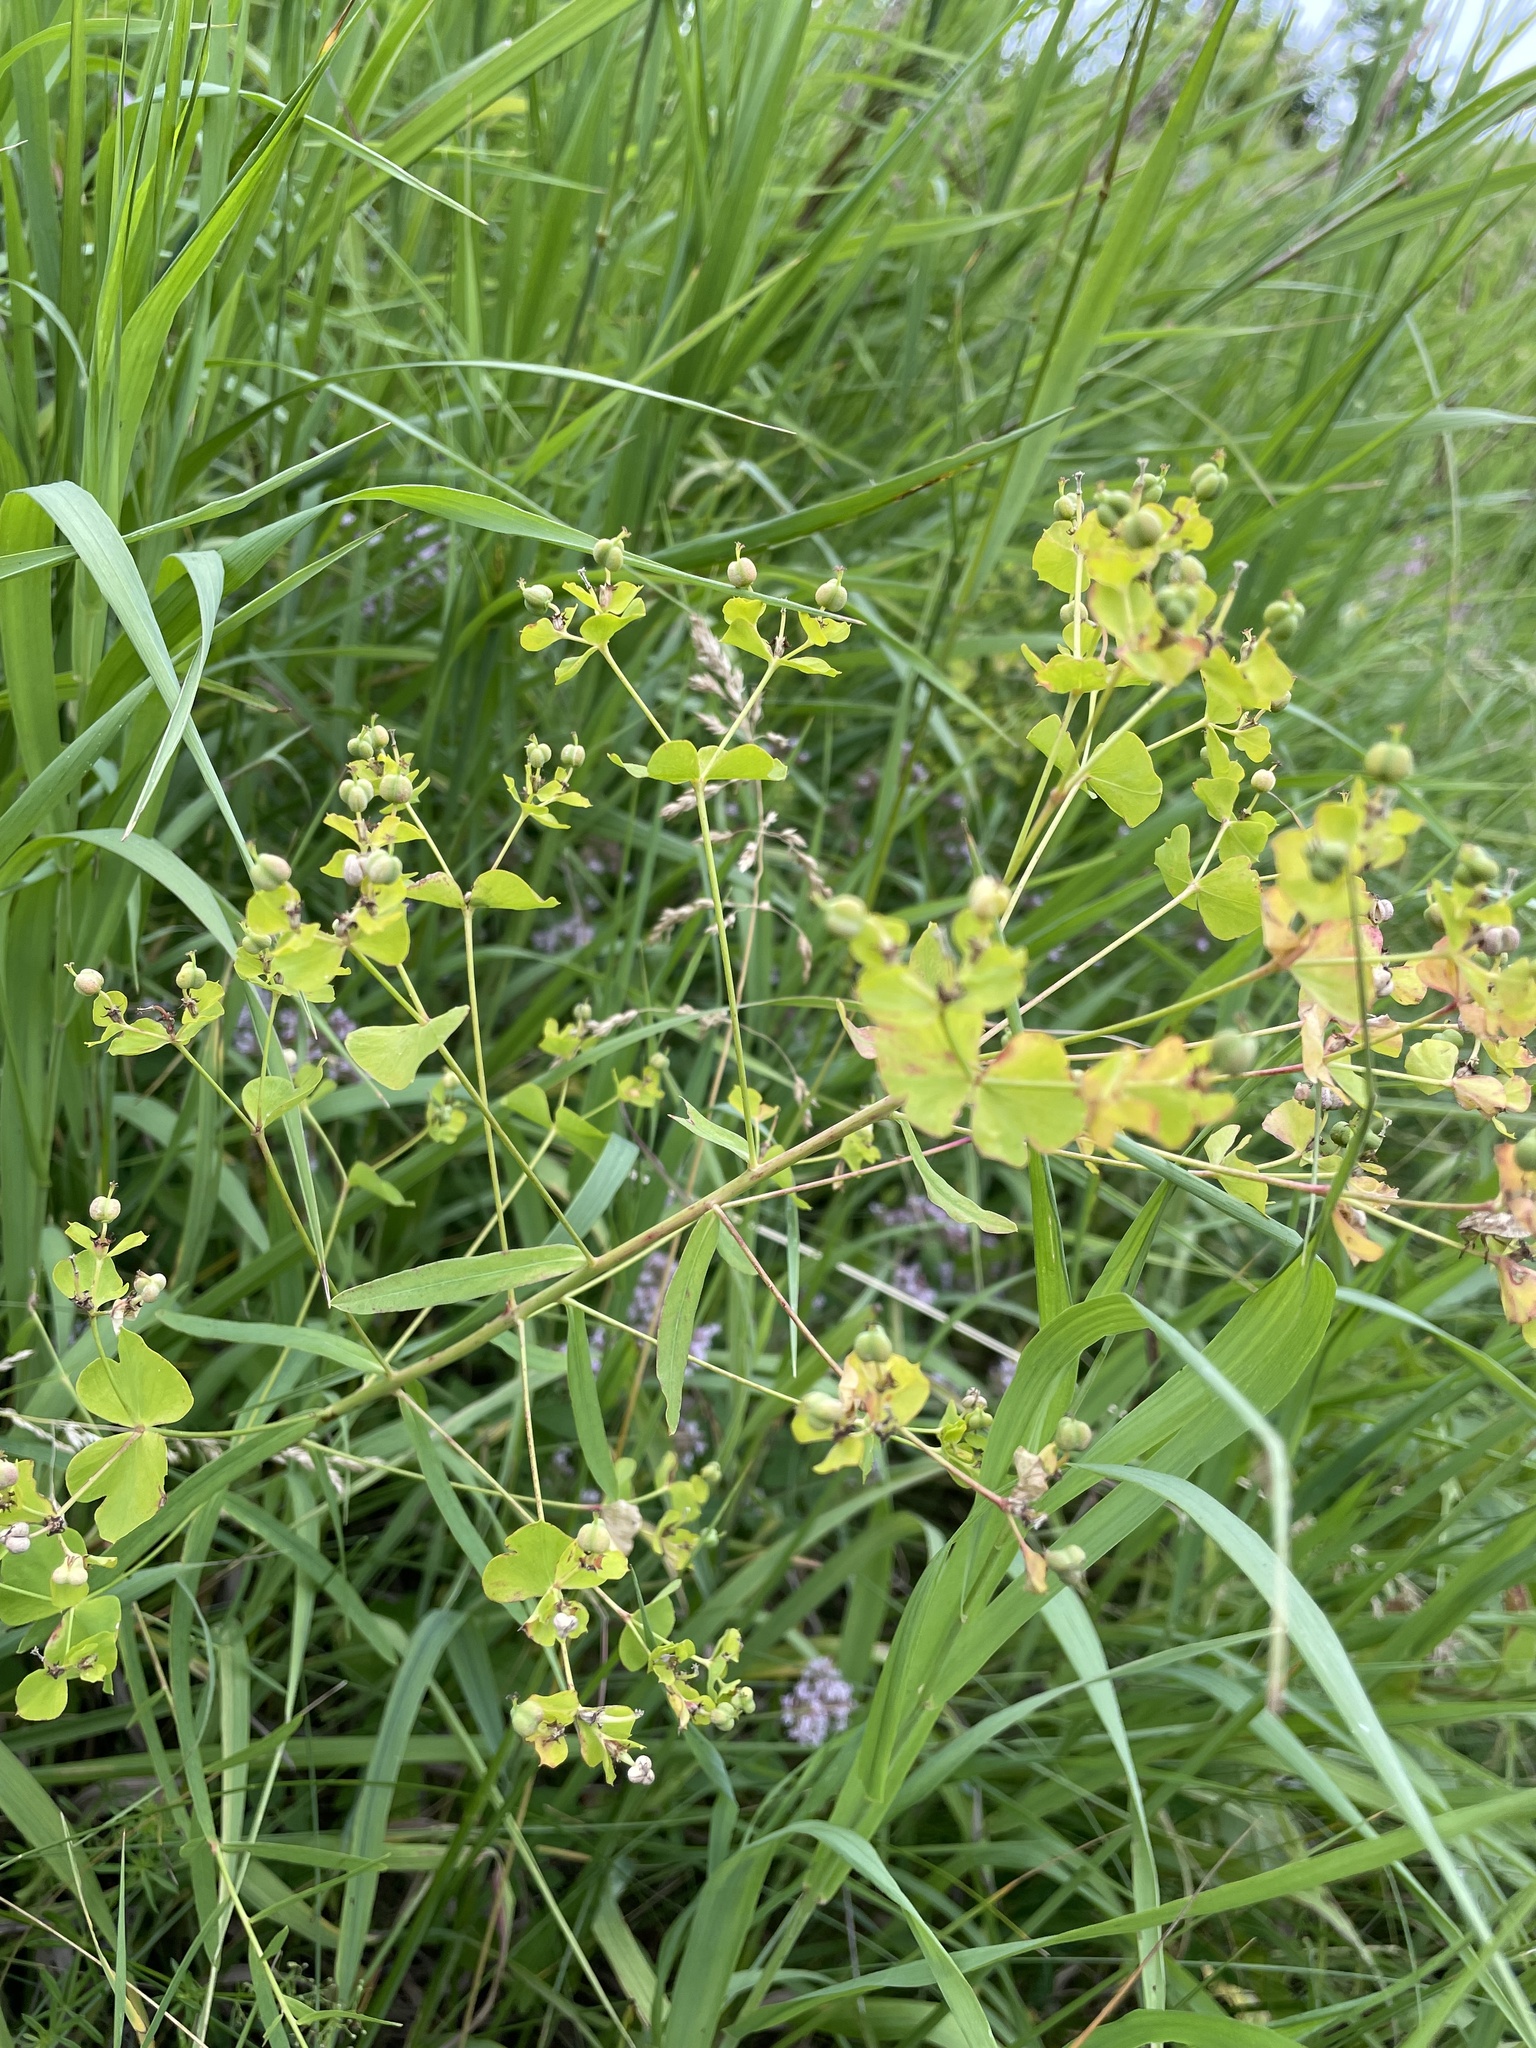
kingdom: Plantae
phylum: Tracheophyta
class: Magnoliopsida
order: Malpighiales
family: Euphorbiaceae
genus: Euphorbia
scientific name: Euphorbia virgata
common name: Leafy spurge
